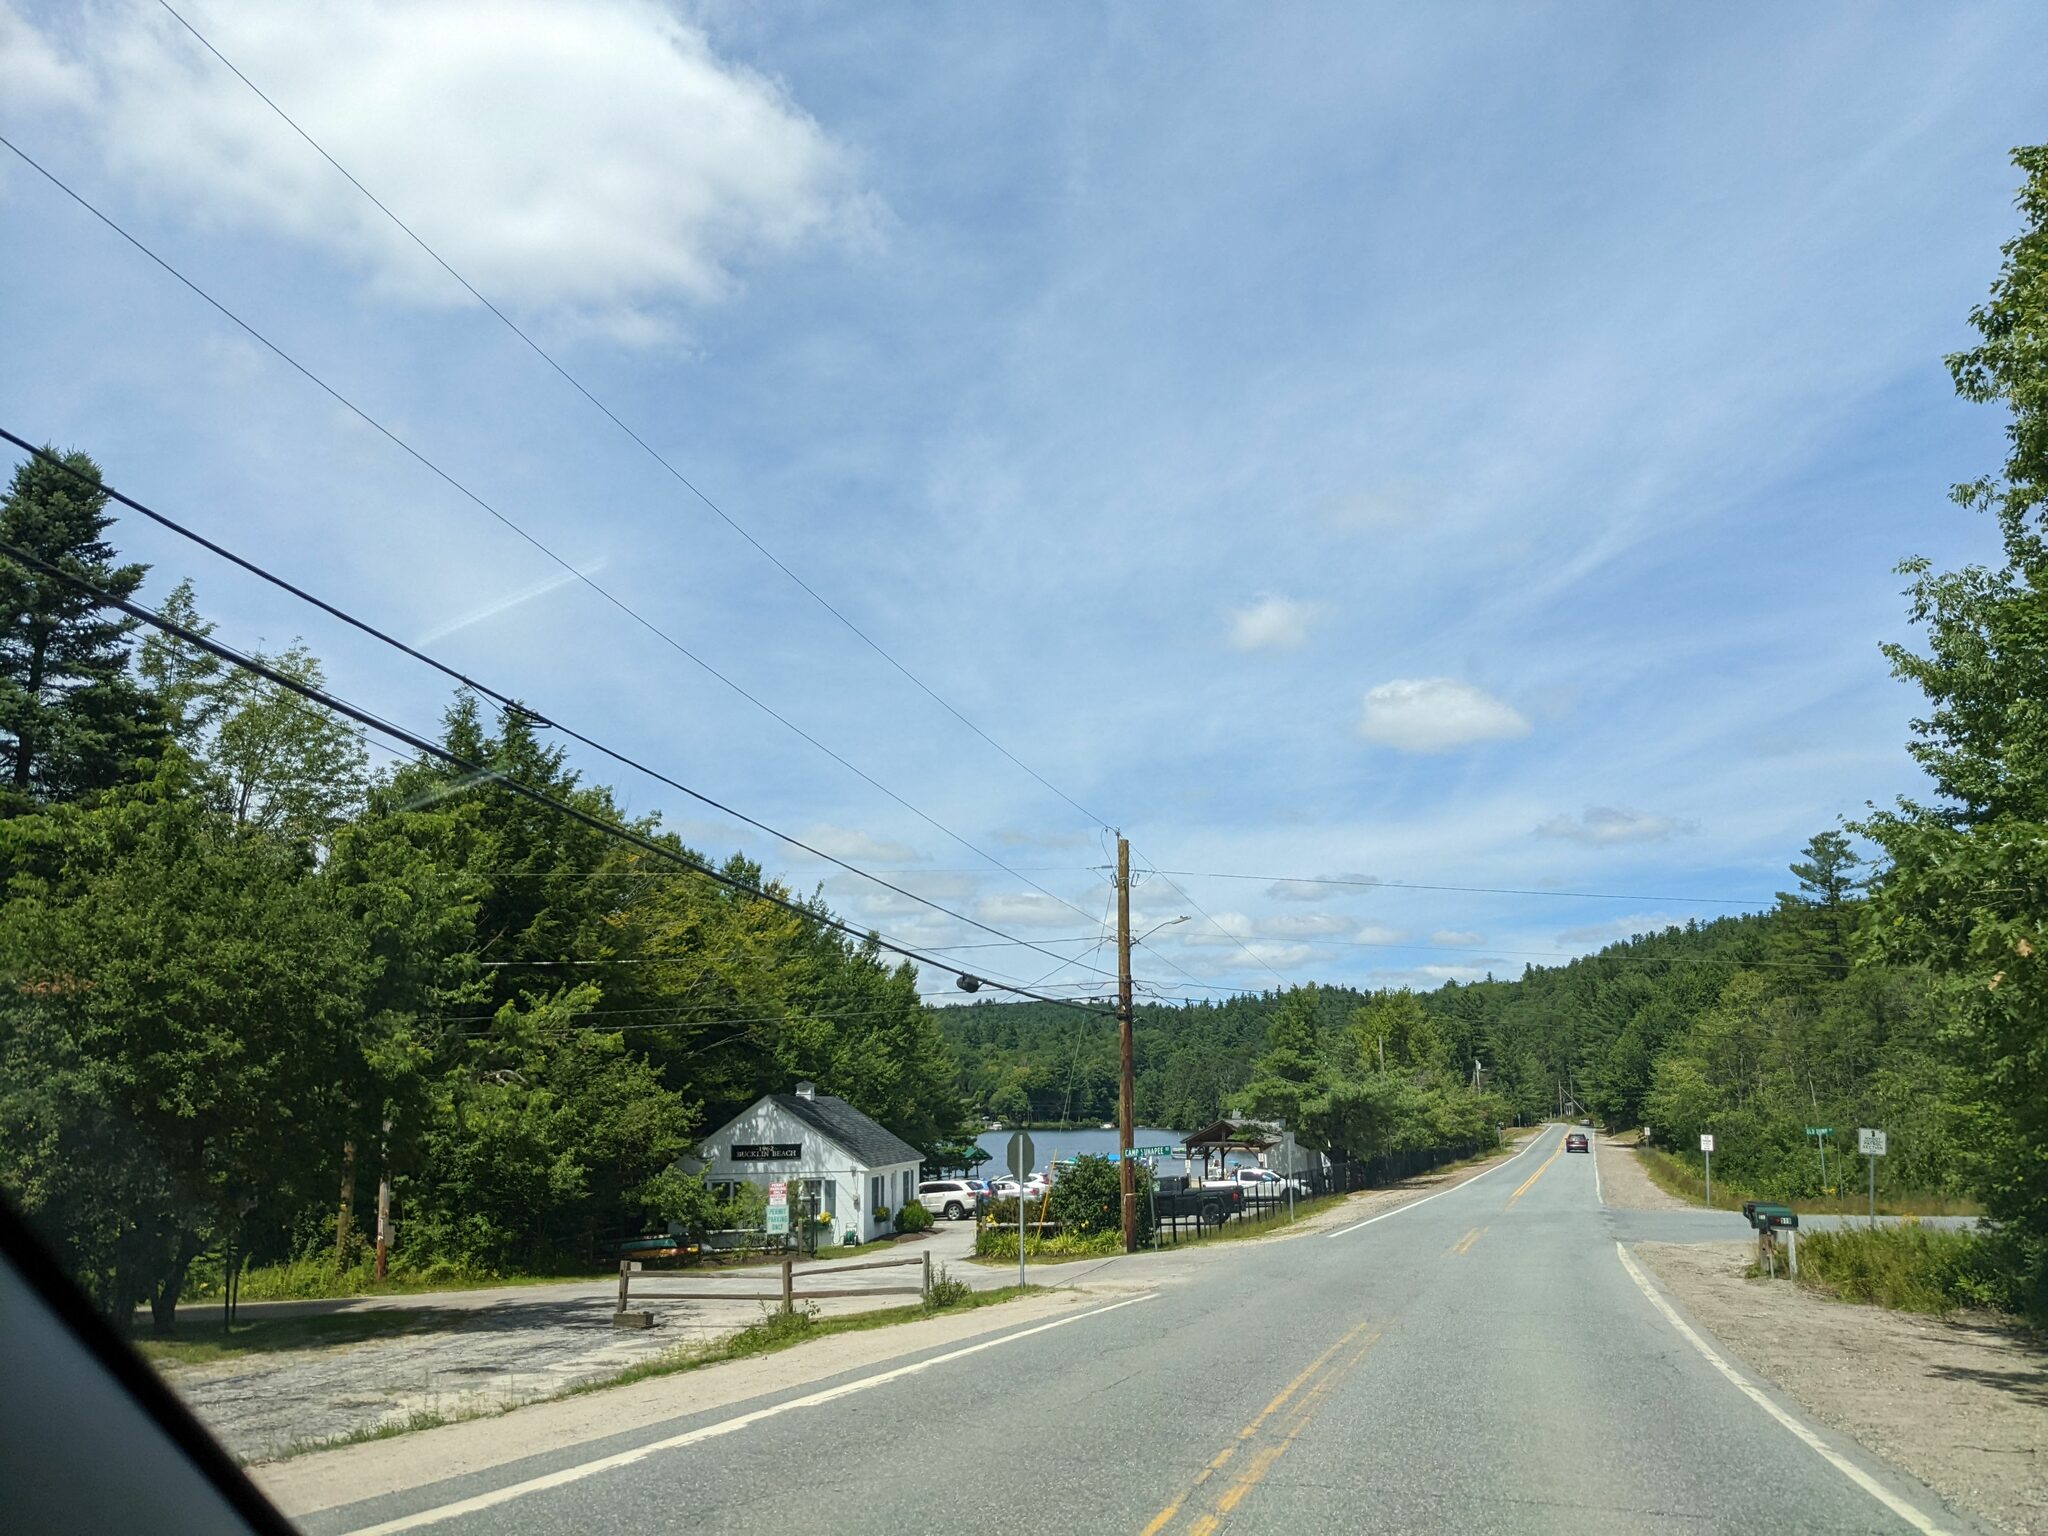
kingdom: Plantae
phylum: Tracheophyta
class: Pinopsida
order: Pinales
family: Pinaceae
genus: Pinus
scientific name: Pinus strobus
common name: Weymouth pine
